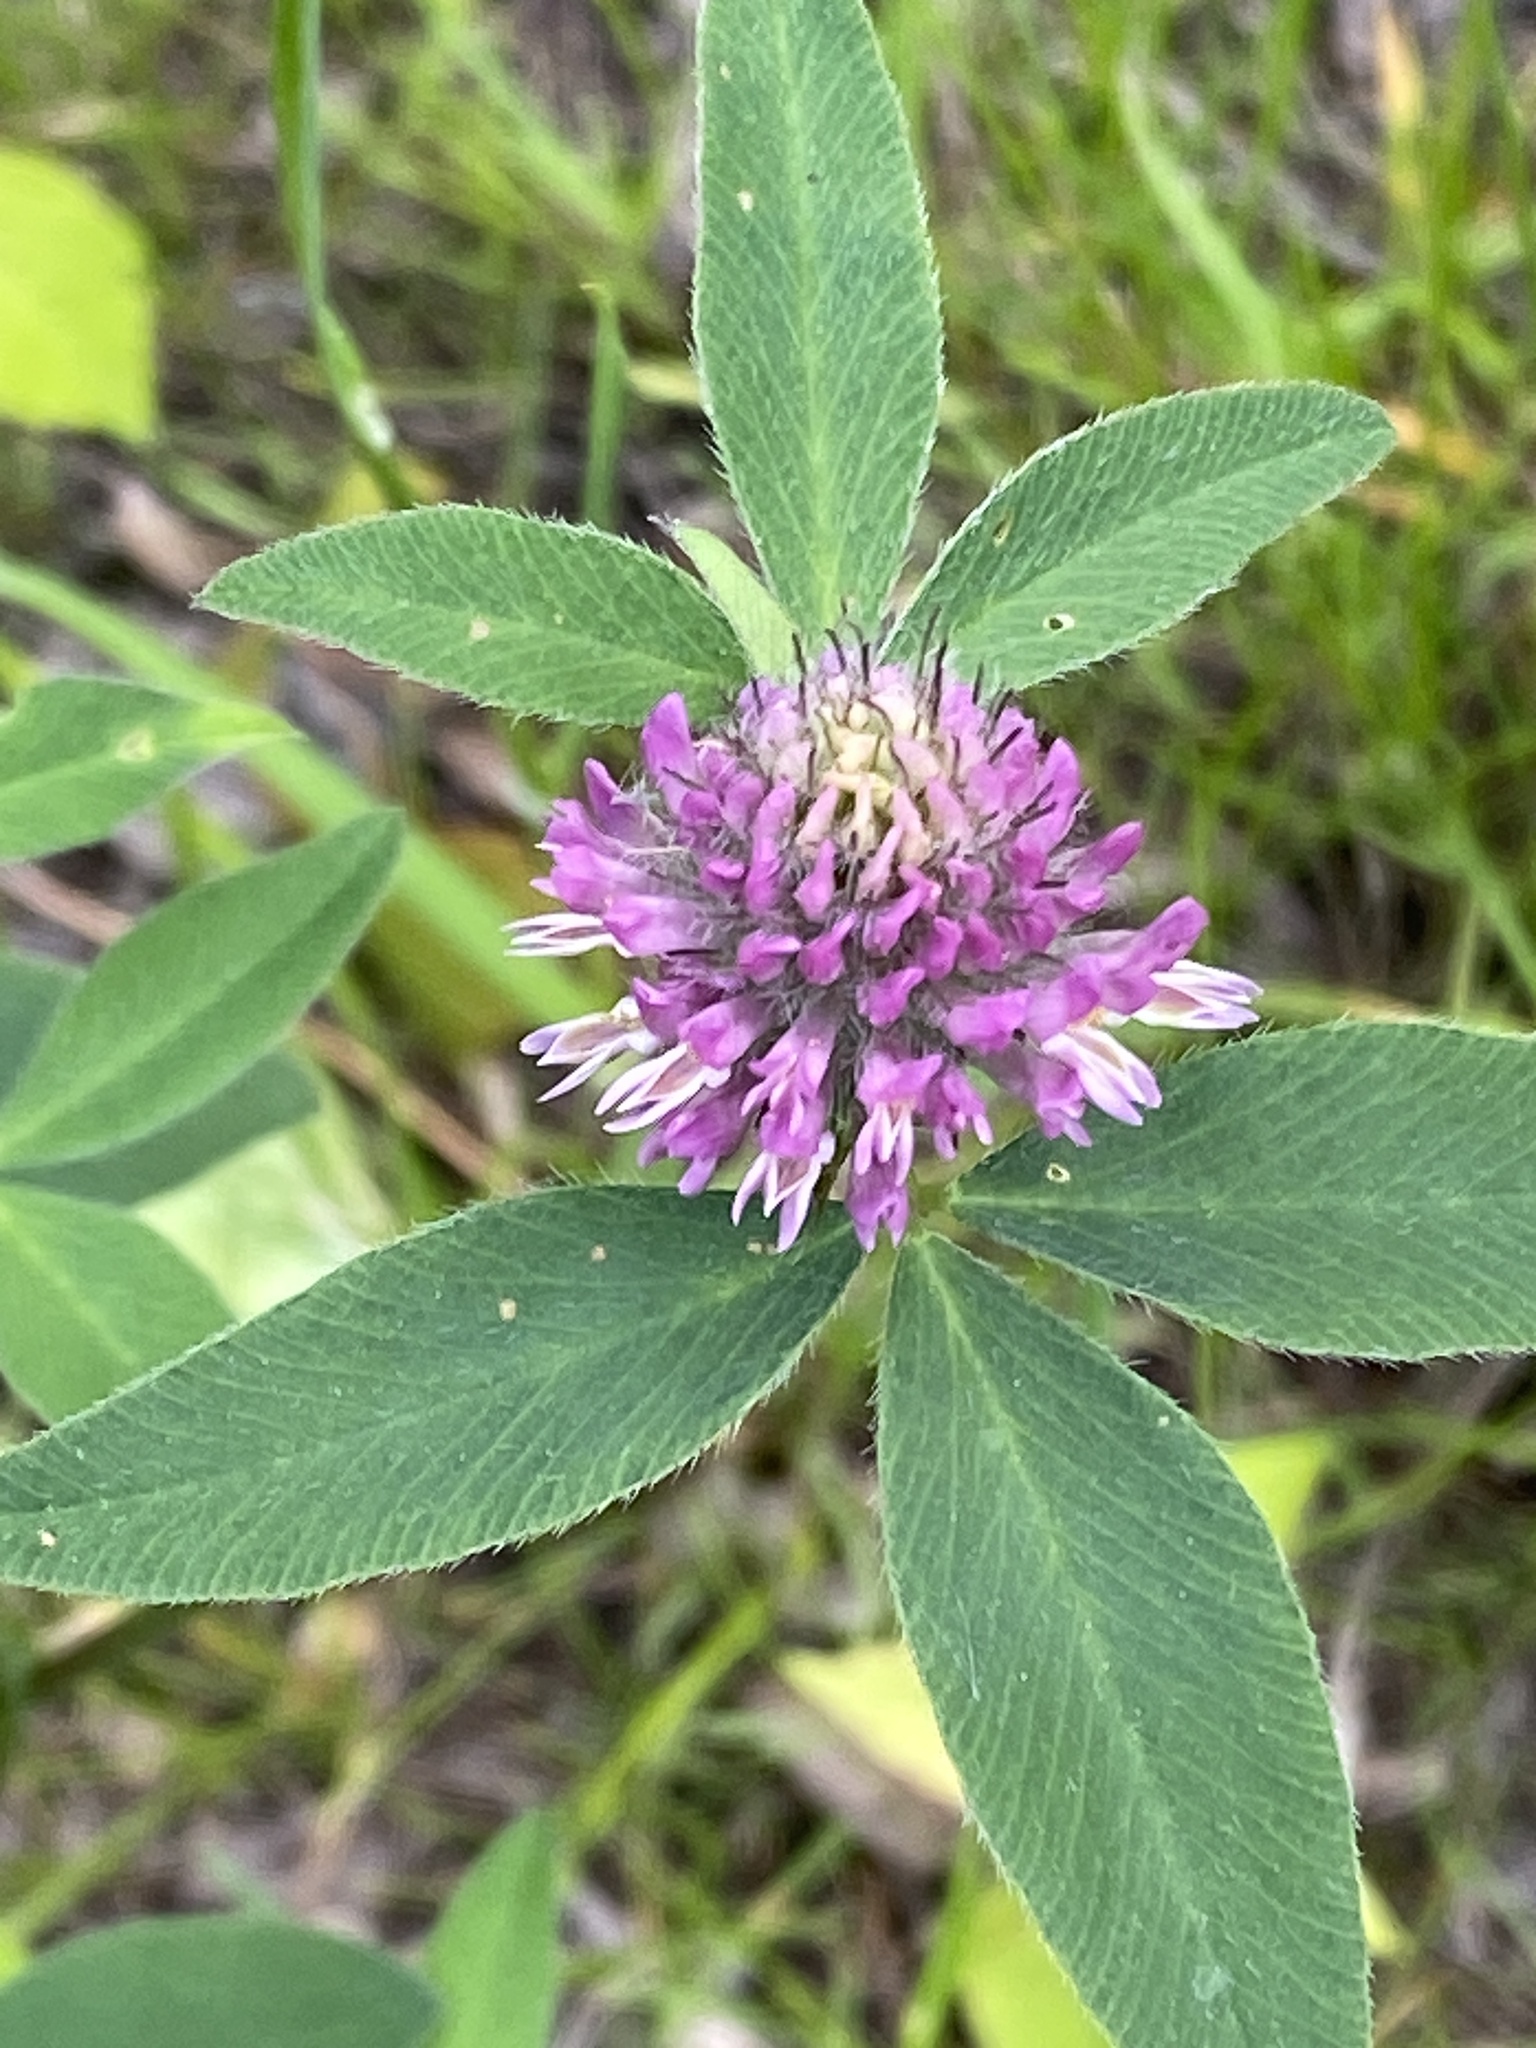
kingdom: Plantae
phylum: Tracheophyta
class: Magnoliopsida
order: Fabales
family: Fabaceae
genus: Trifolium
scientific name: Trifolium medium
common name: Zigzag clover
